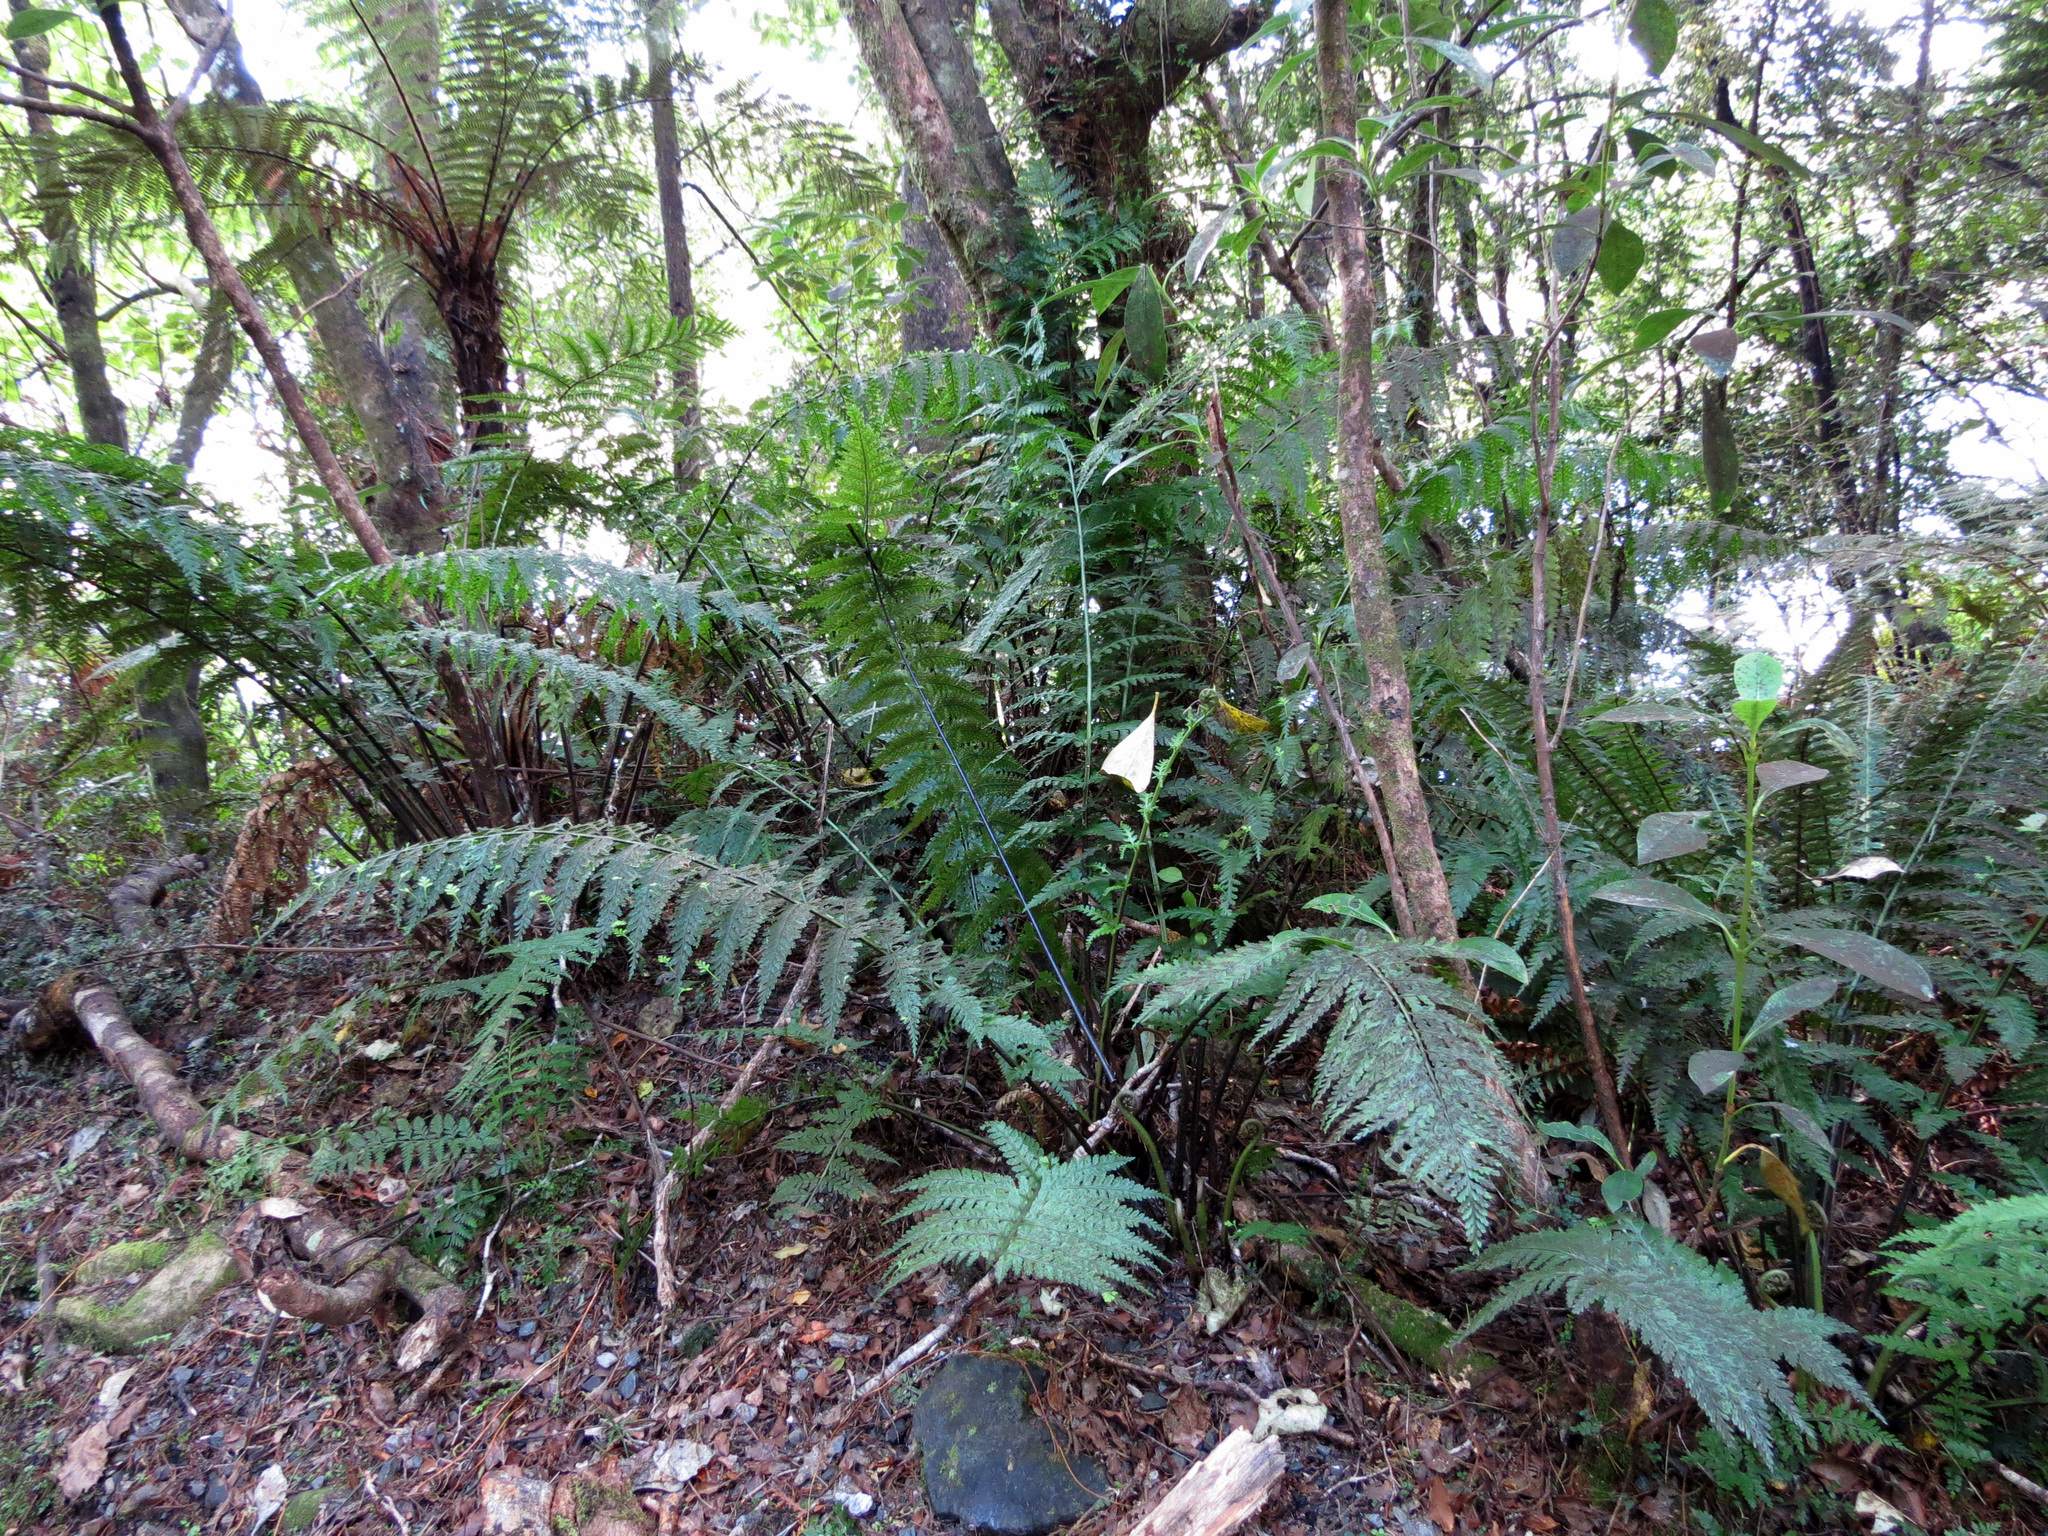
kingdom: Plantae
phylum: Tracheophyta
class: Polypodiopsida
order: Polypodiales
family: Aspleniaceae
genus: Asplenium
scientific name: Asplenium bulbiferum
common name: Mother fern
